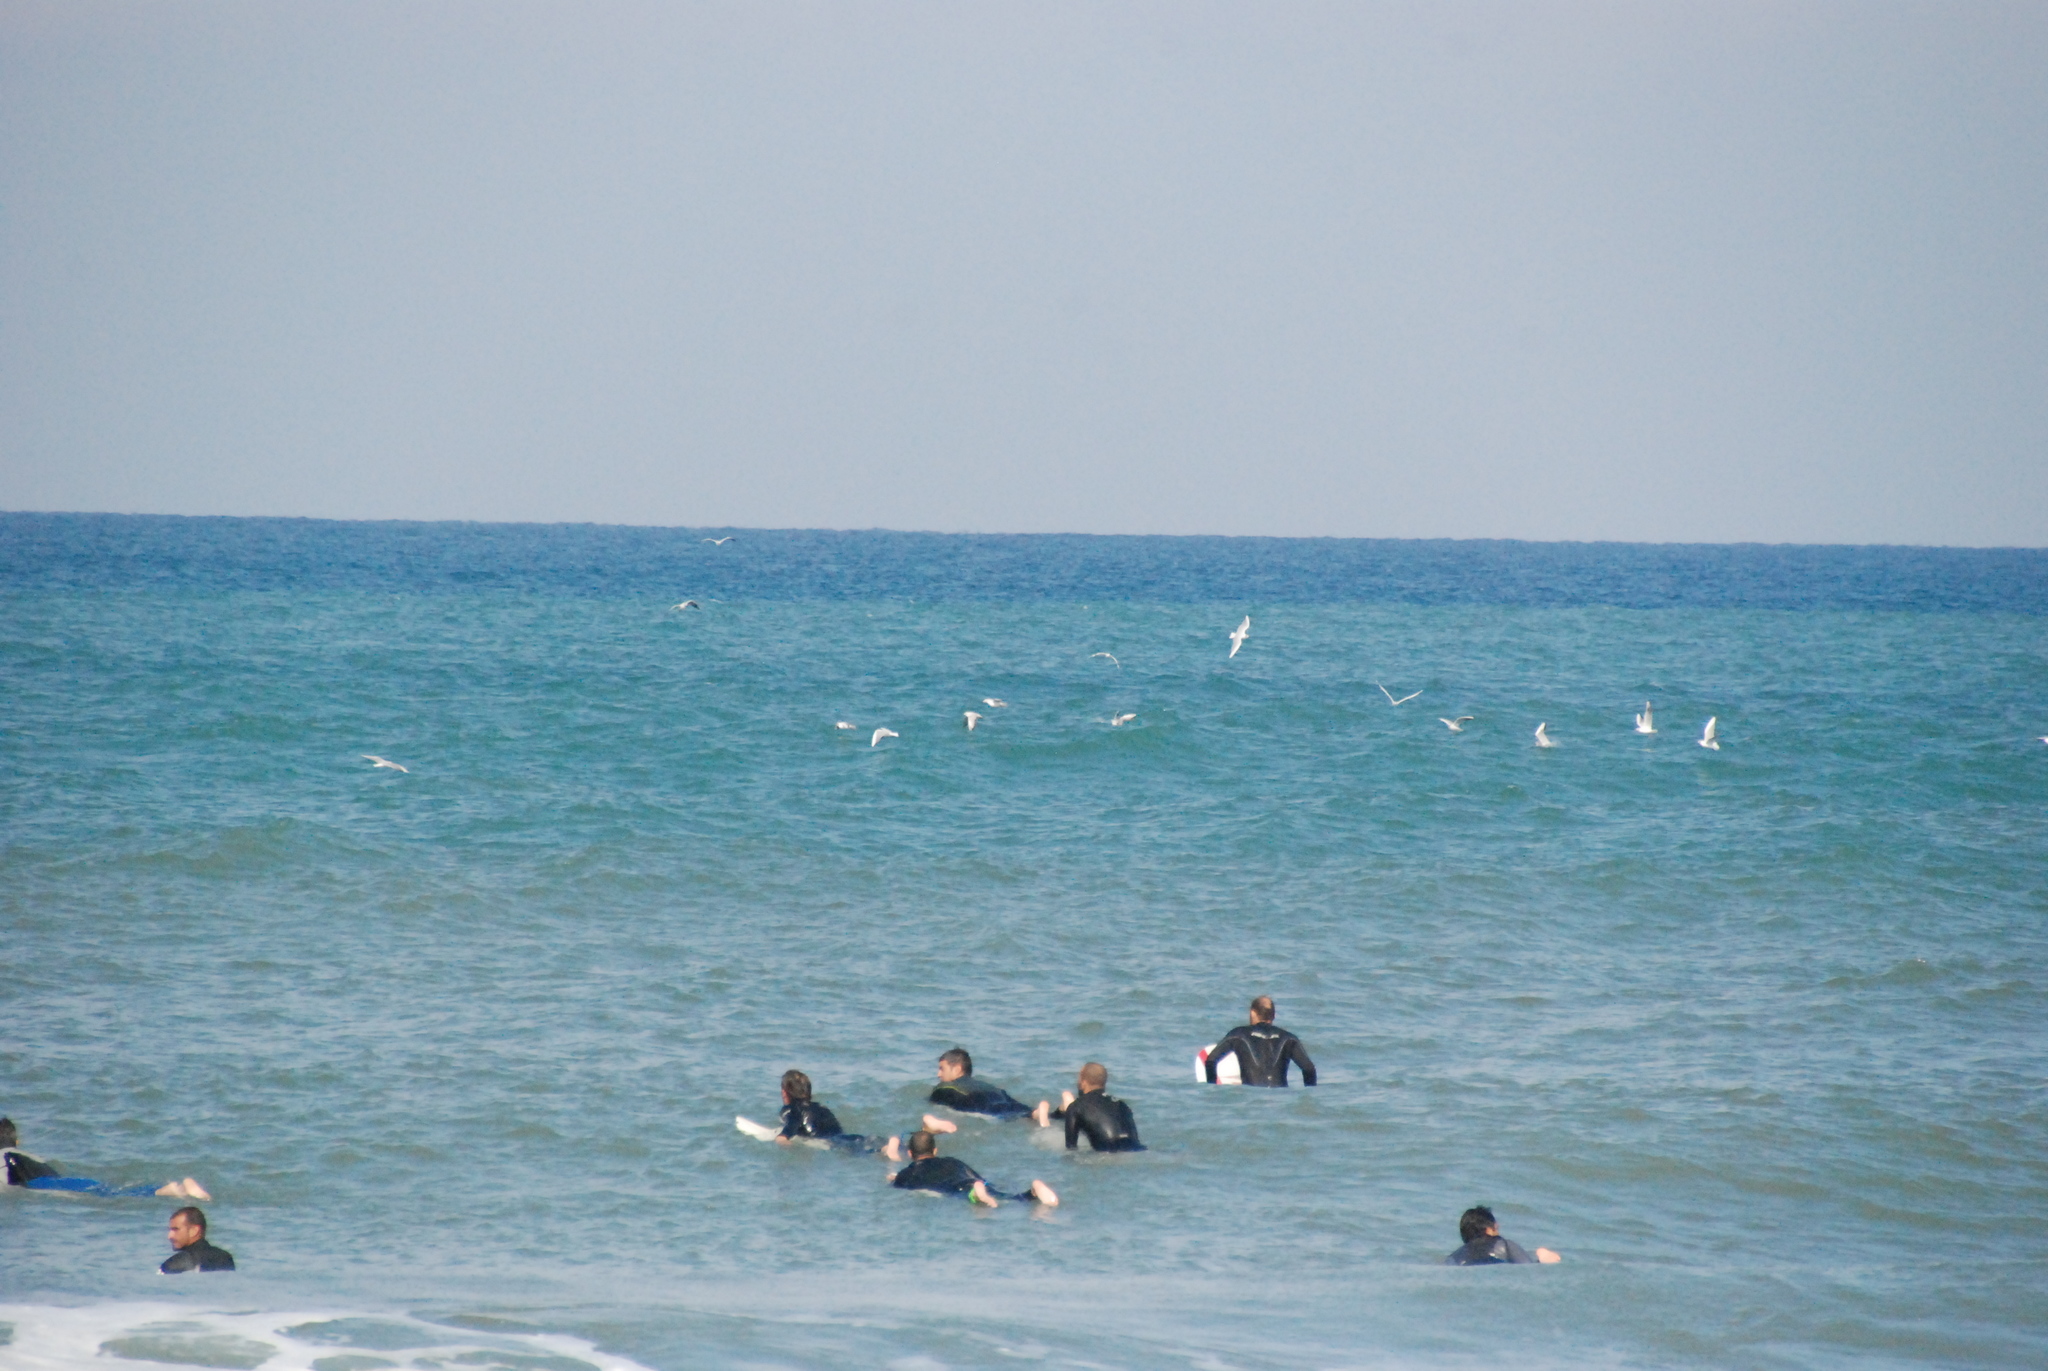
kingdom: Animalia
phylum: Chordata
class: Aves
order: Charadriiformes
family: Laridae
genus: Chroicocephalus
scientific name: Chroicocephalus ridibundus
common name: Black-headed gull
